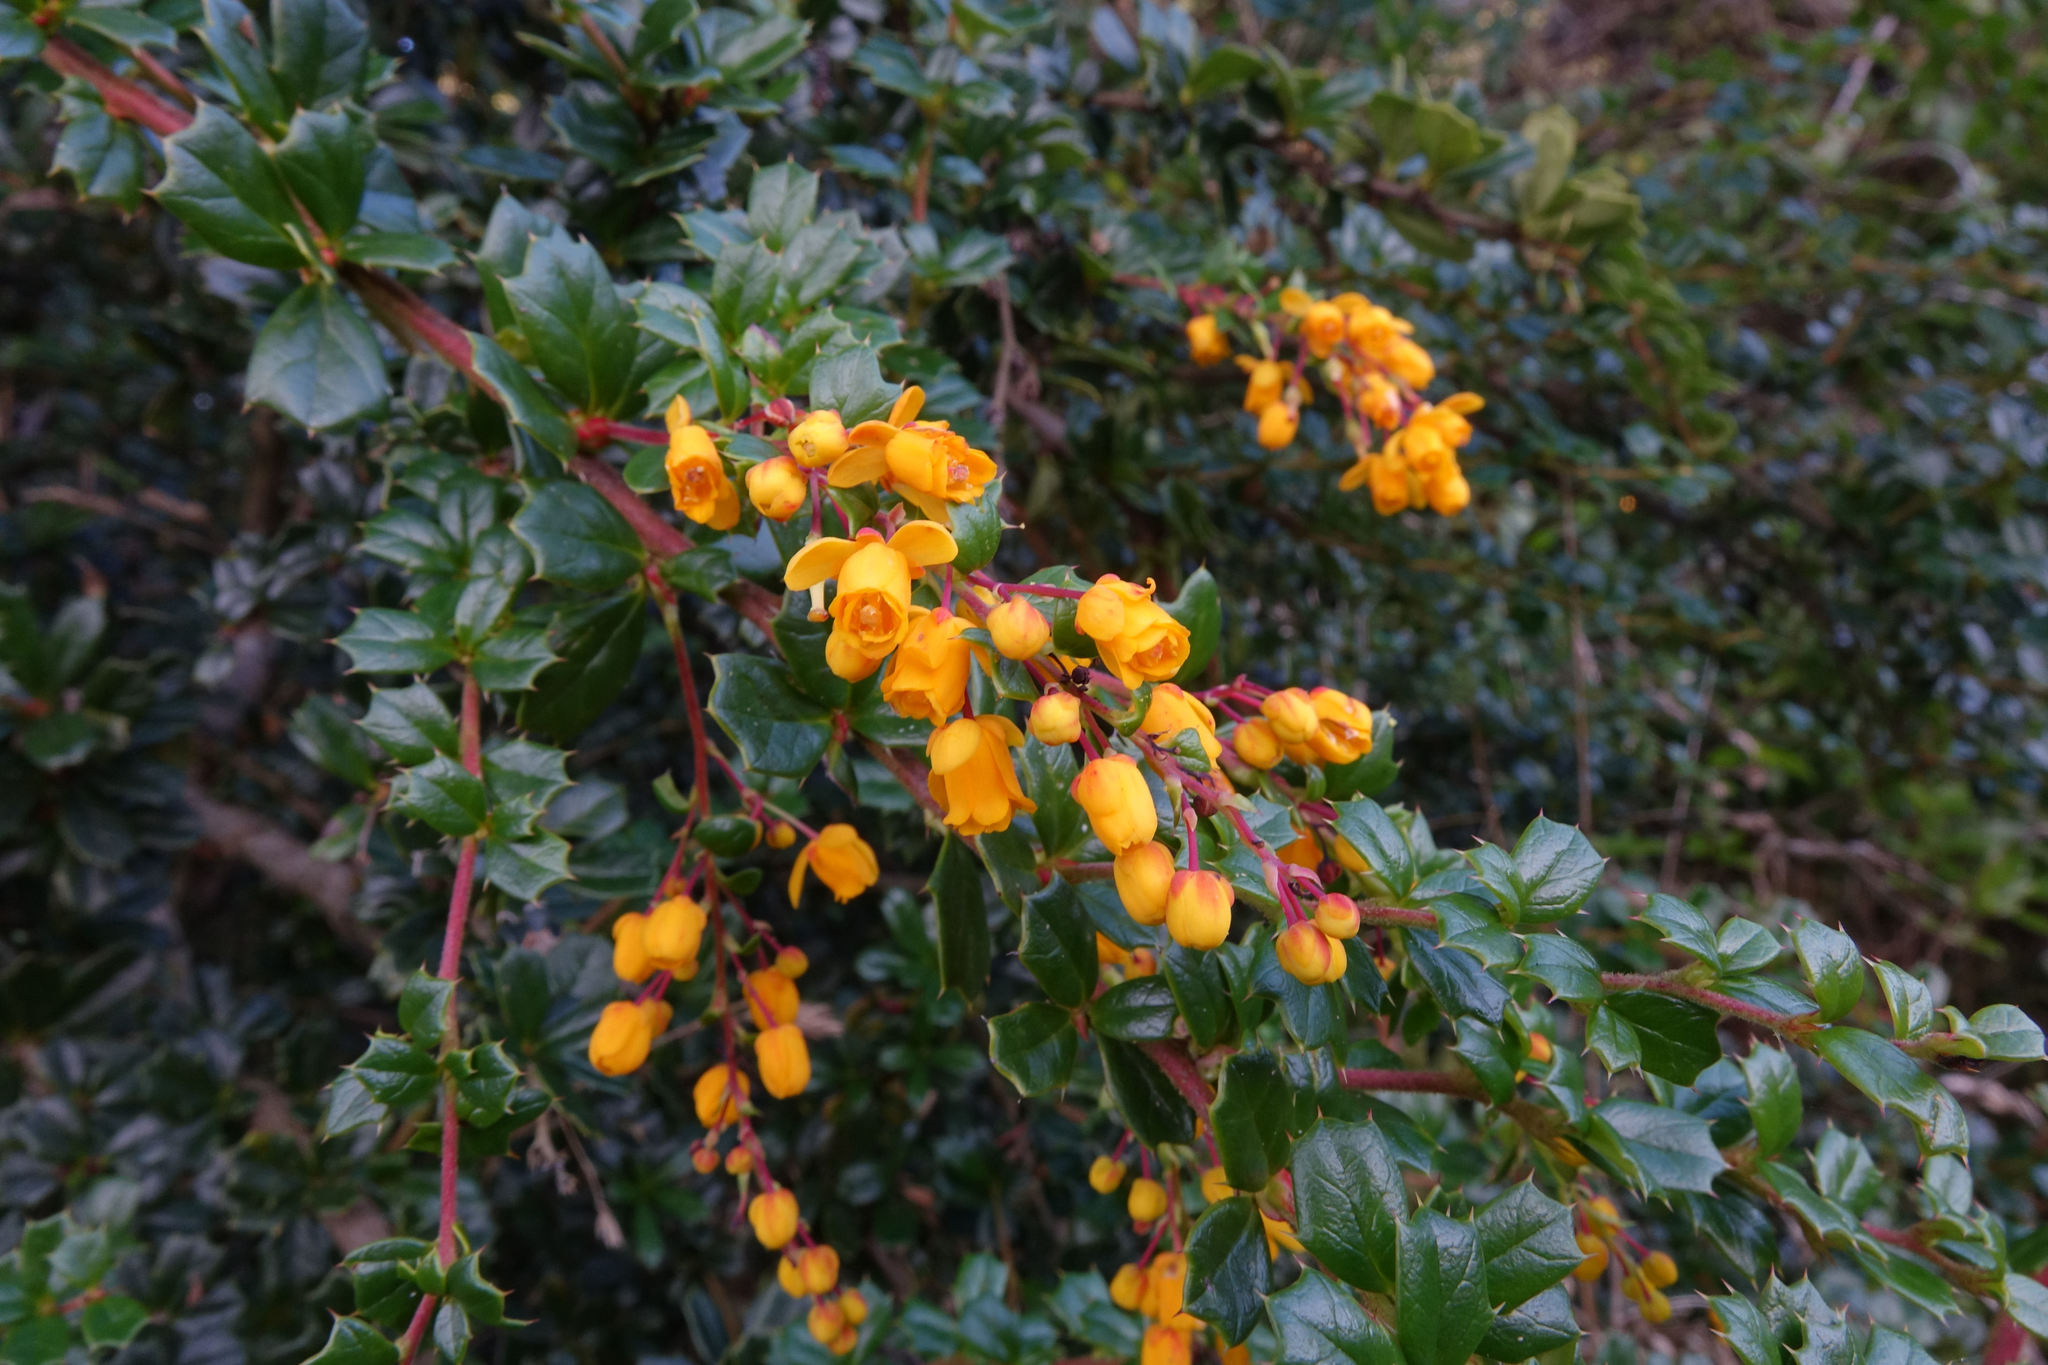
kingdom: Plantae
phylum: Tracheophyta
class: Magnoliopsida
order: Ranunculales
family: Berberidaceae
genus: Berberis
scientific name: Berberis darwinii
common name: Darwin's barberry
